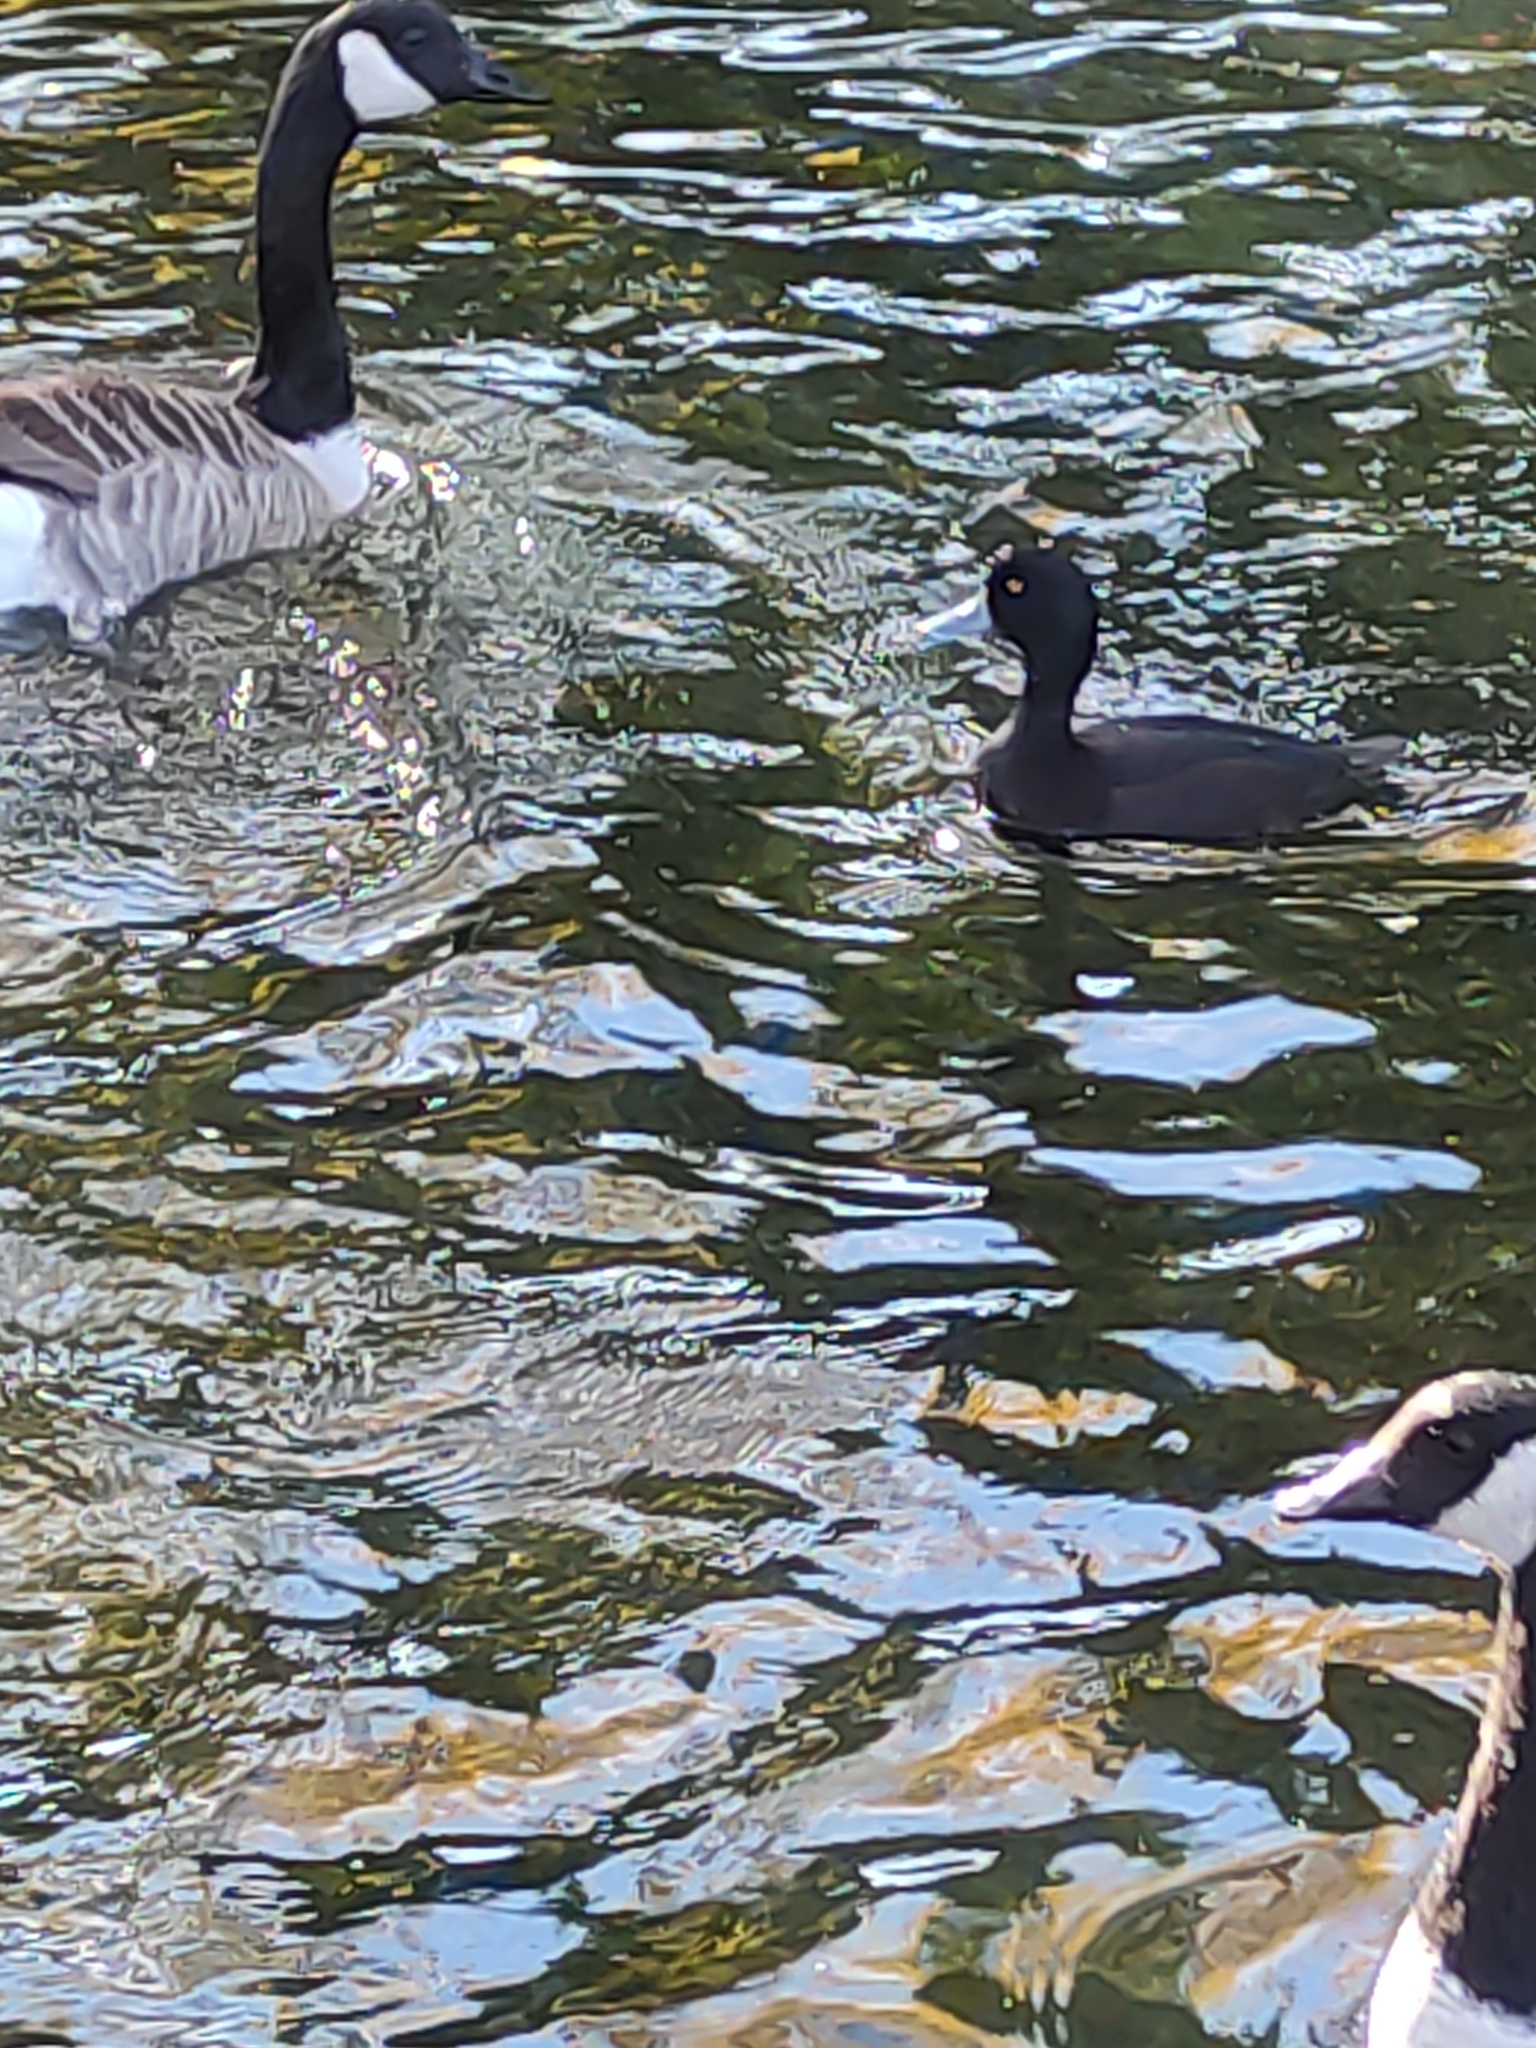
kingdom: Animalia
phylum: Chordata
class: Aves
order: Anseriformes
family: Anatidae
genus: Aythya
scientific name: Aythya novaeseelandiae
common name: New zealand scaup
